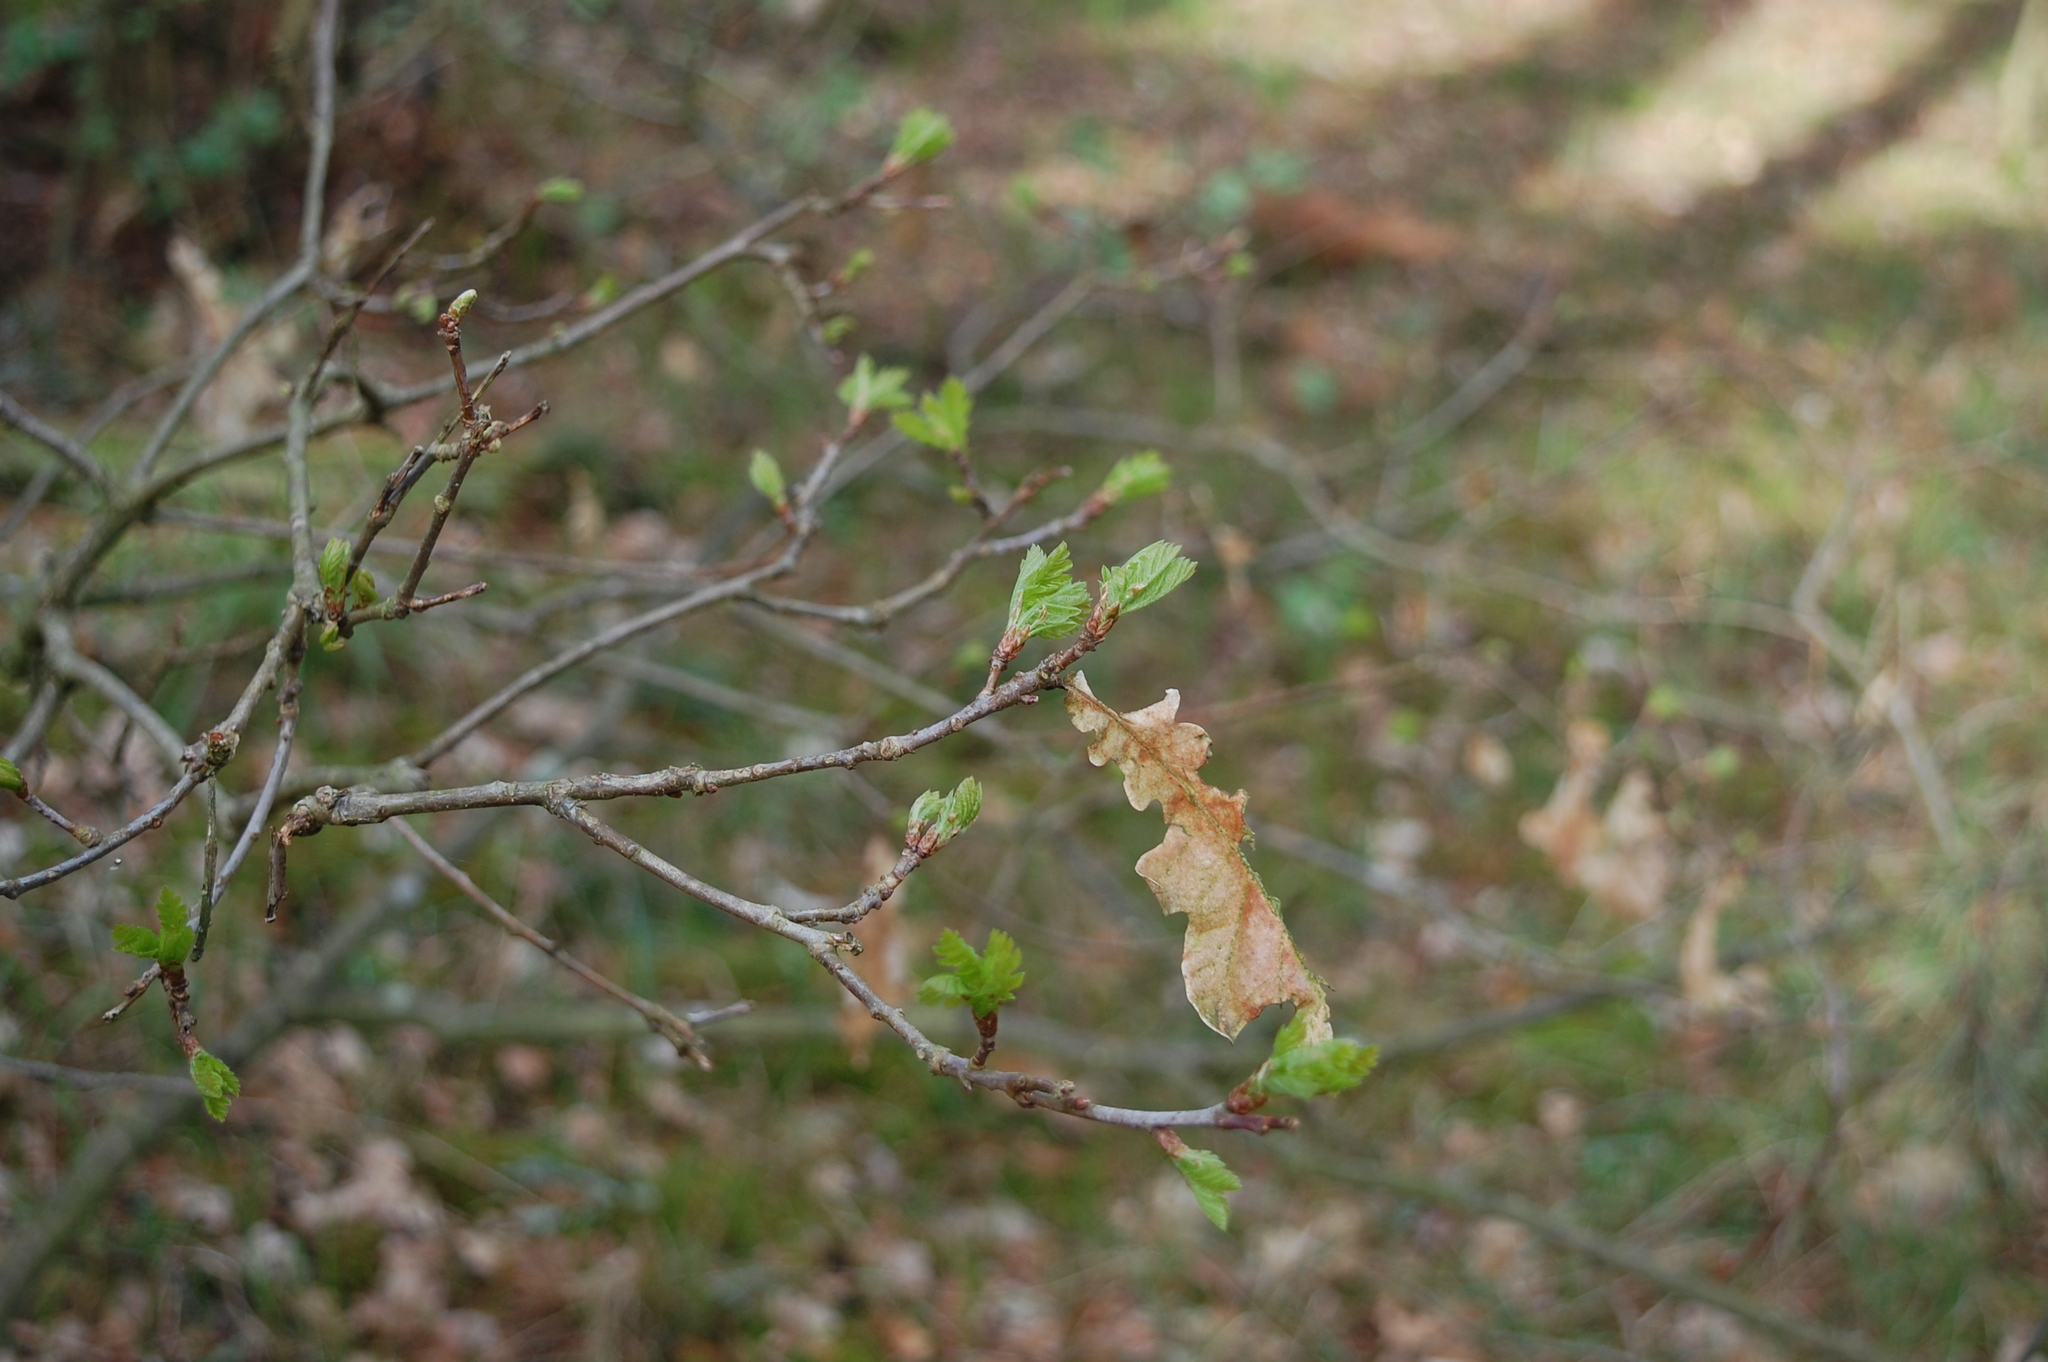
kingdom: Plantae
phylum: Tracheophyta
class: Magnoliopsida
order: Fagales
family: Fagaceae
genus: Quercus
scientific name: Quercus robur
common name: Pedunculate oak
